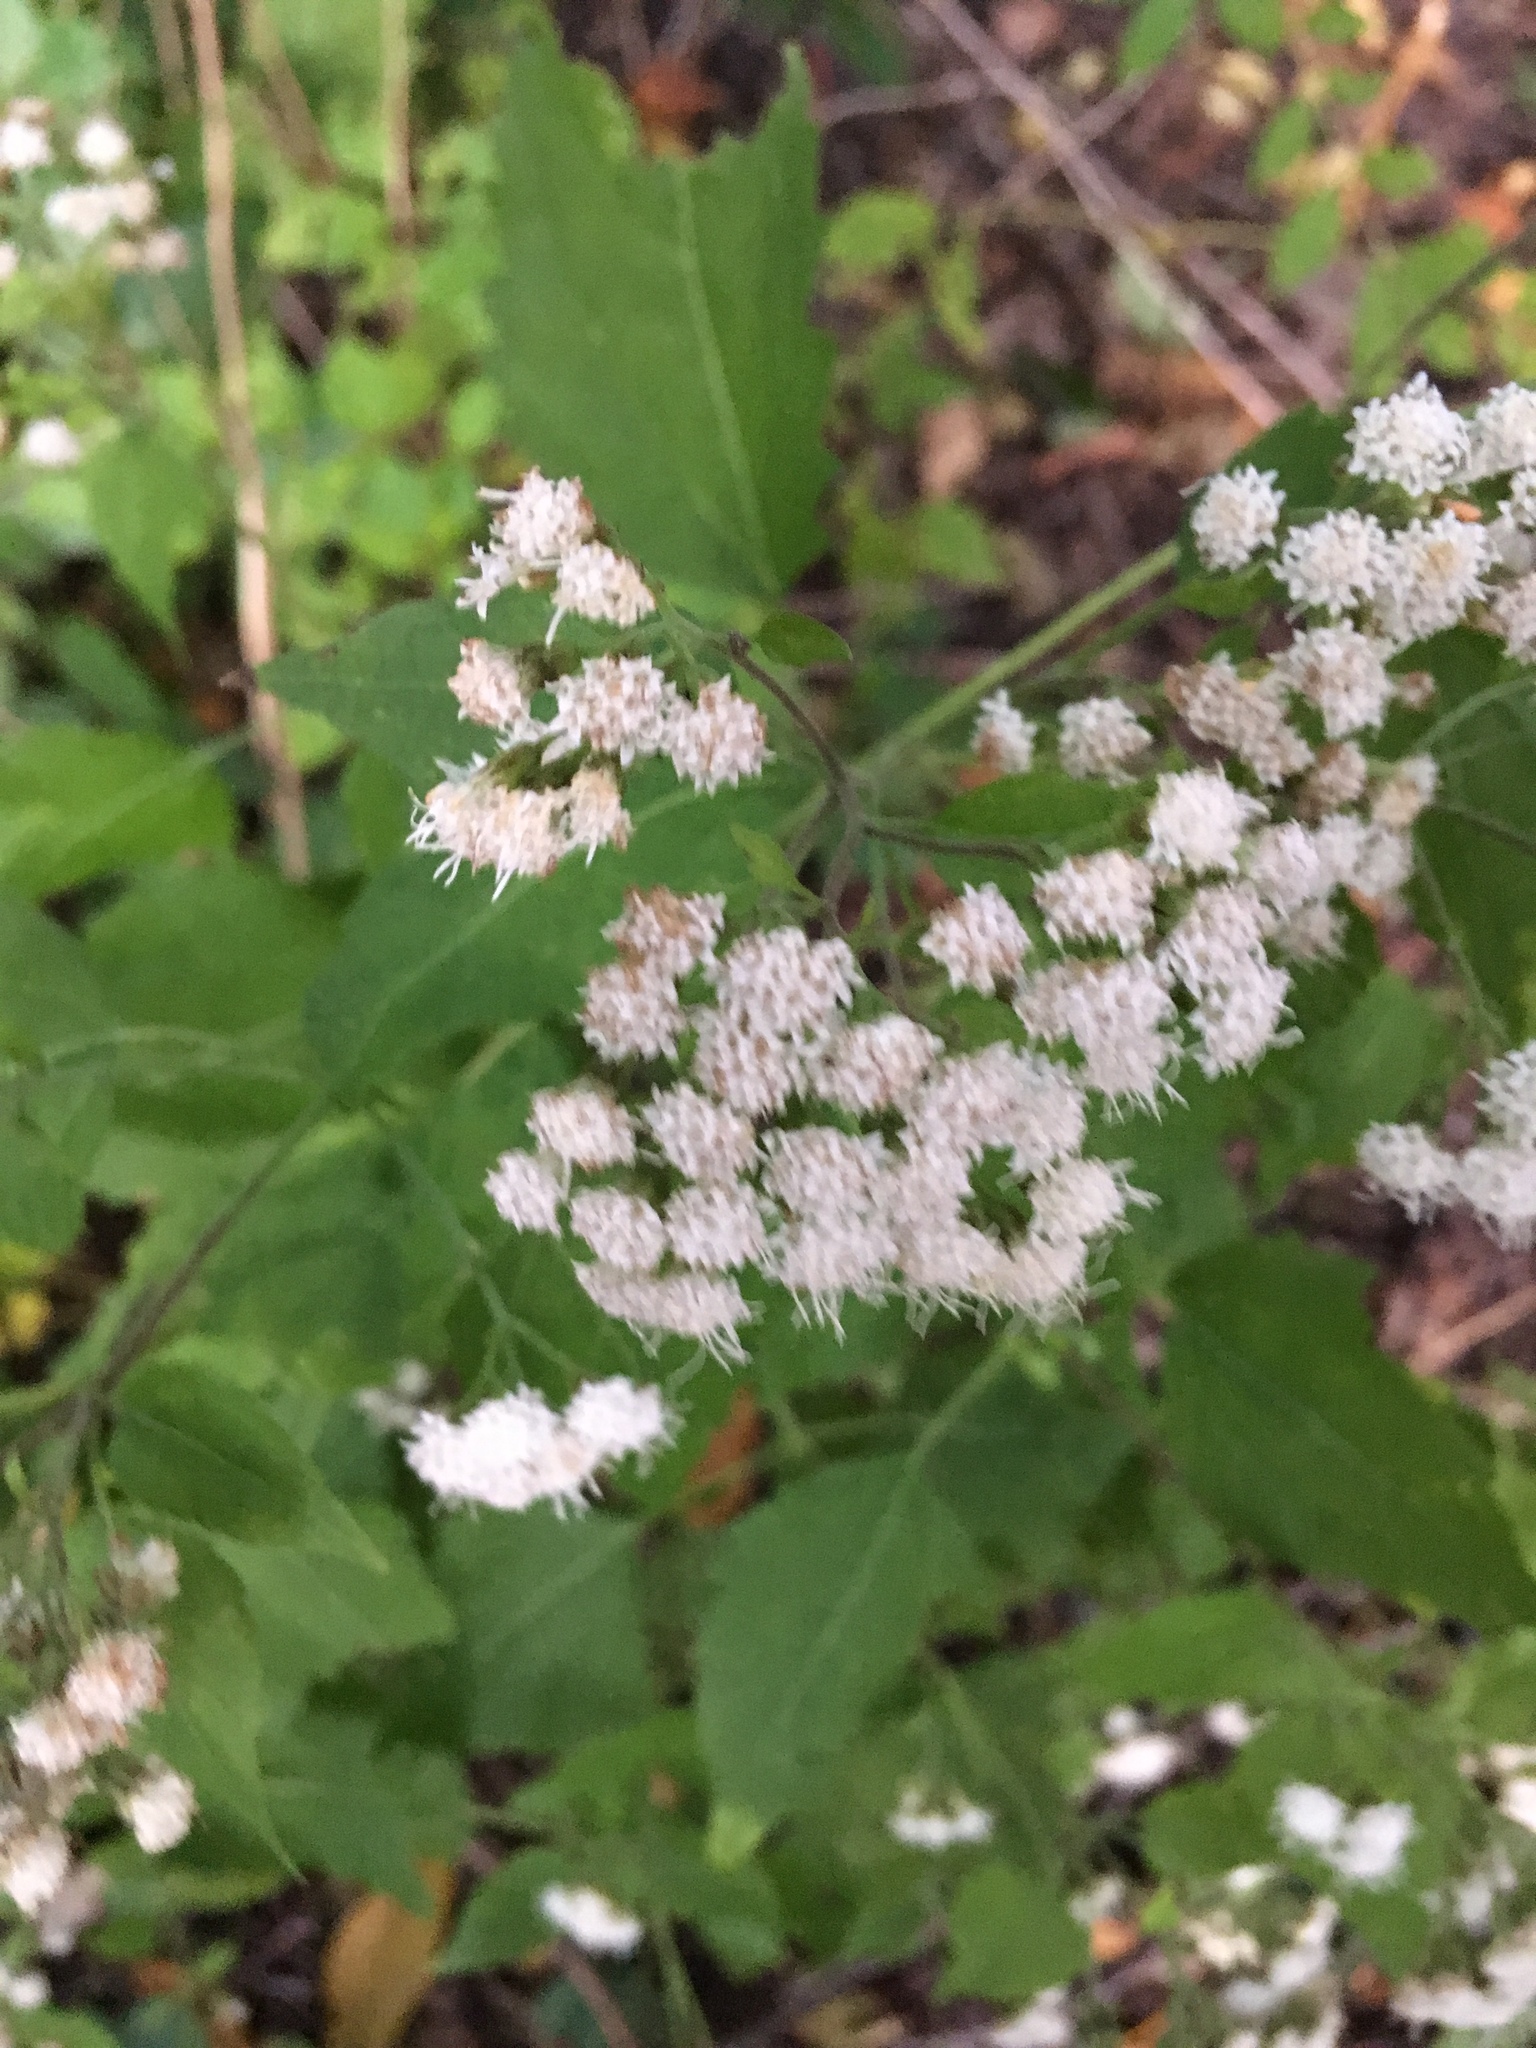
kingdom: Plantae
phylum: Tracheophyta
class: Magnoliopsida
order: Asterales
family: Asteraceae
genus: Ageratina
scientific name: Ageratina altissima
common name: White snakeroot
